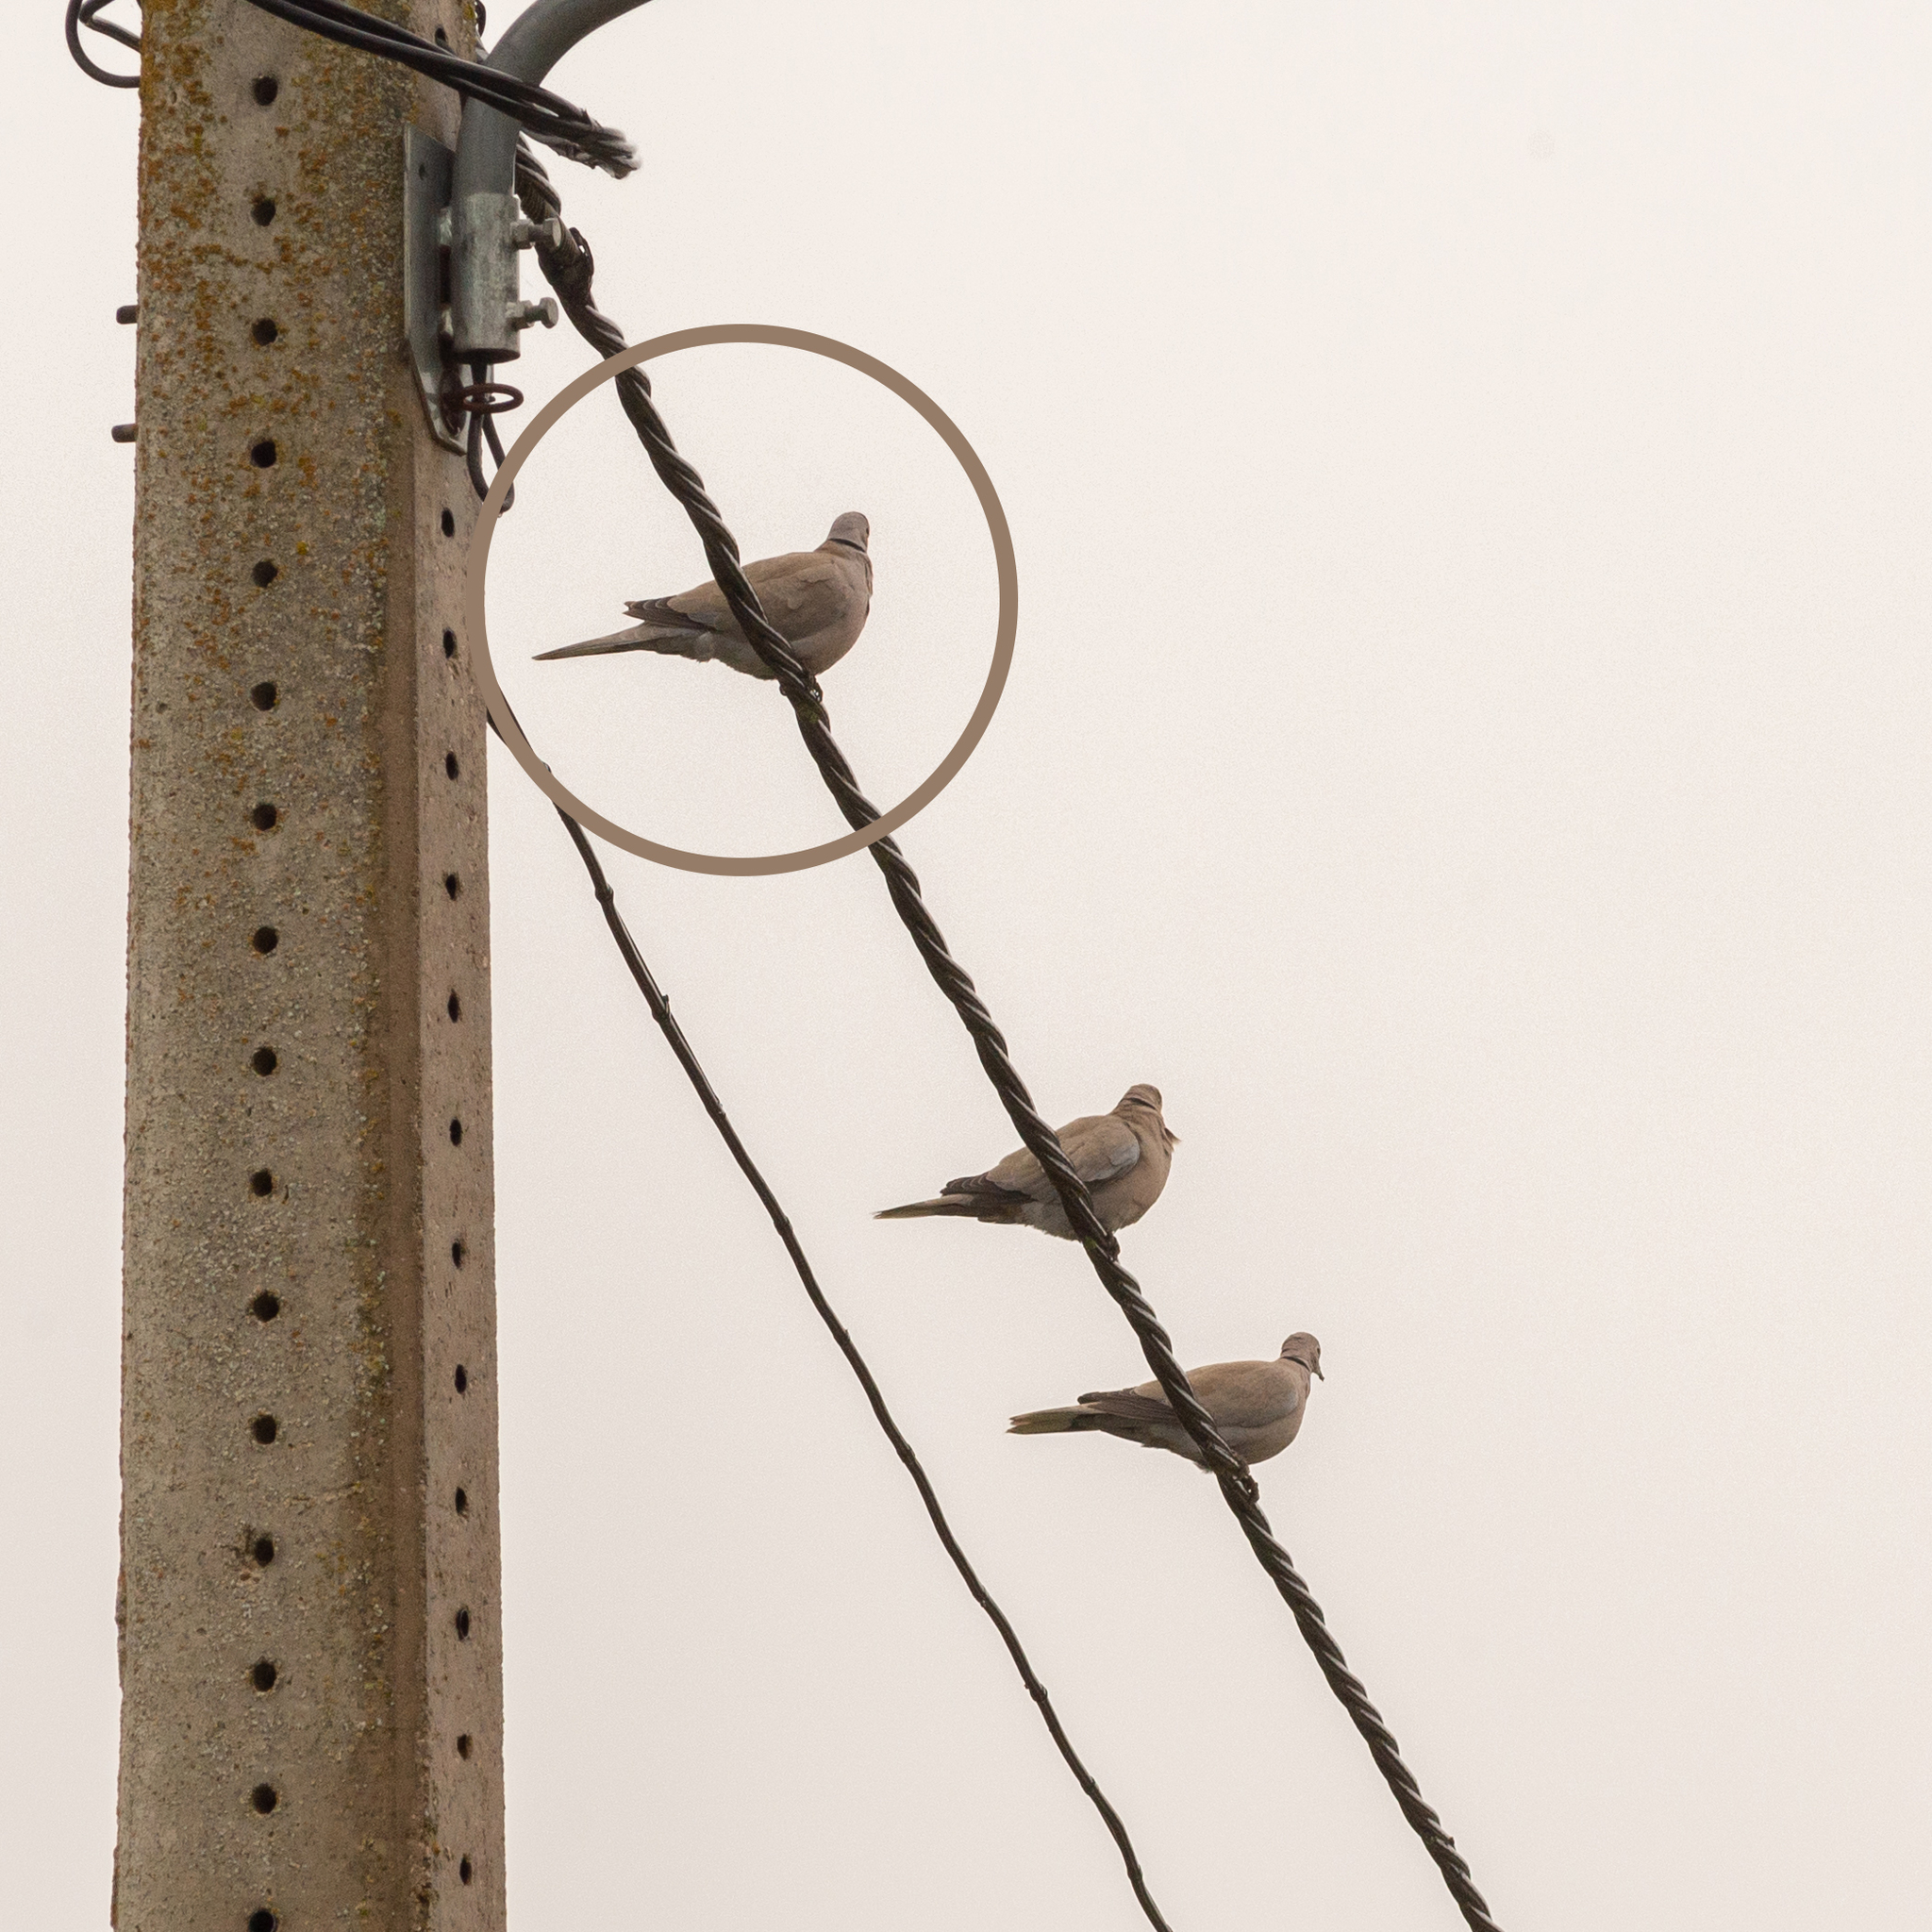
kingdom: Animalia
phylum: Chordata
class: Aves
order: Columbiformes
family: Columbidae
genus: Streptopelia
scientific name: Streptopelia decaocto
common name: Eurasian collared dove
